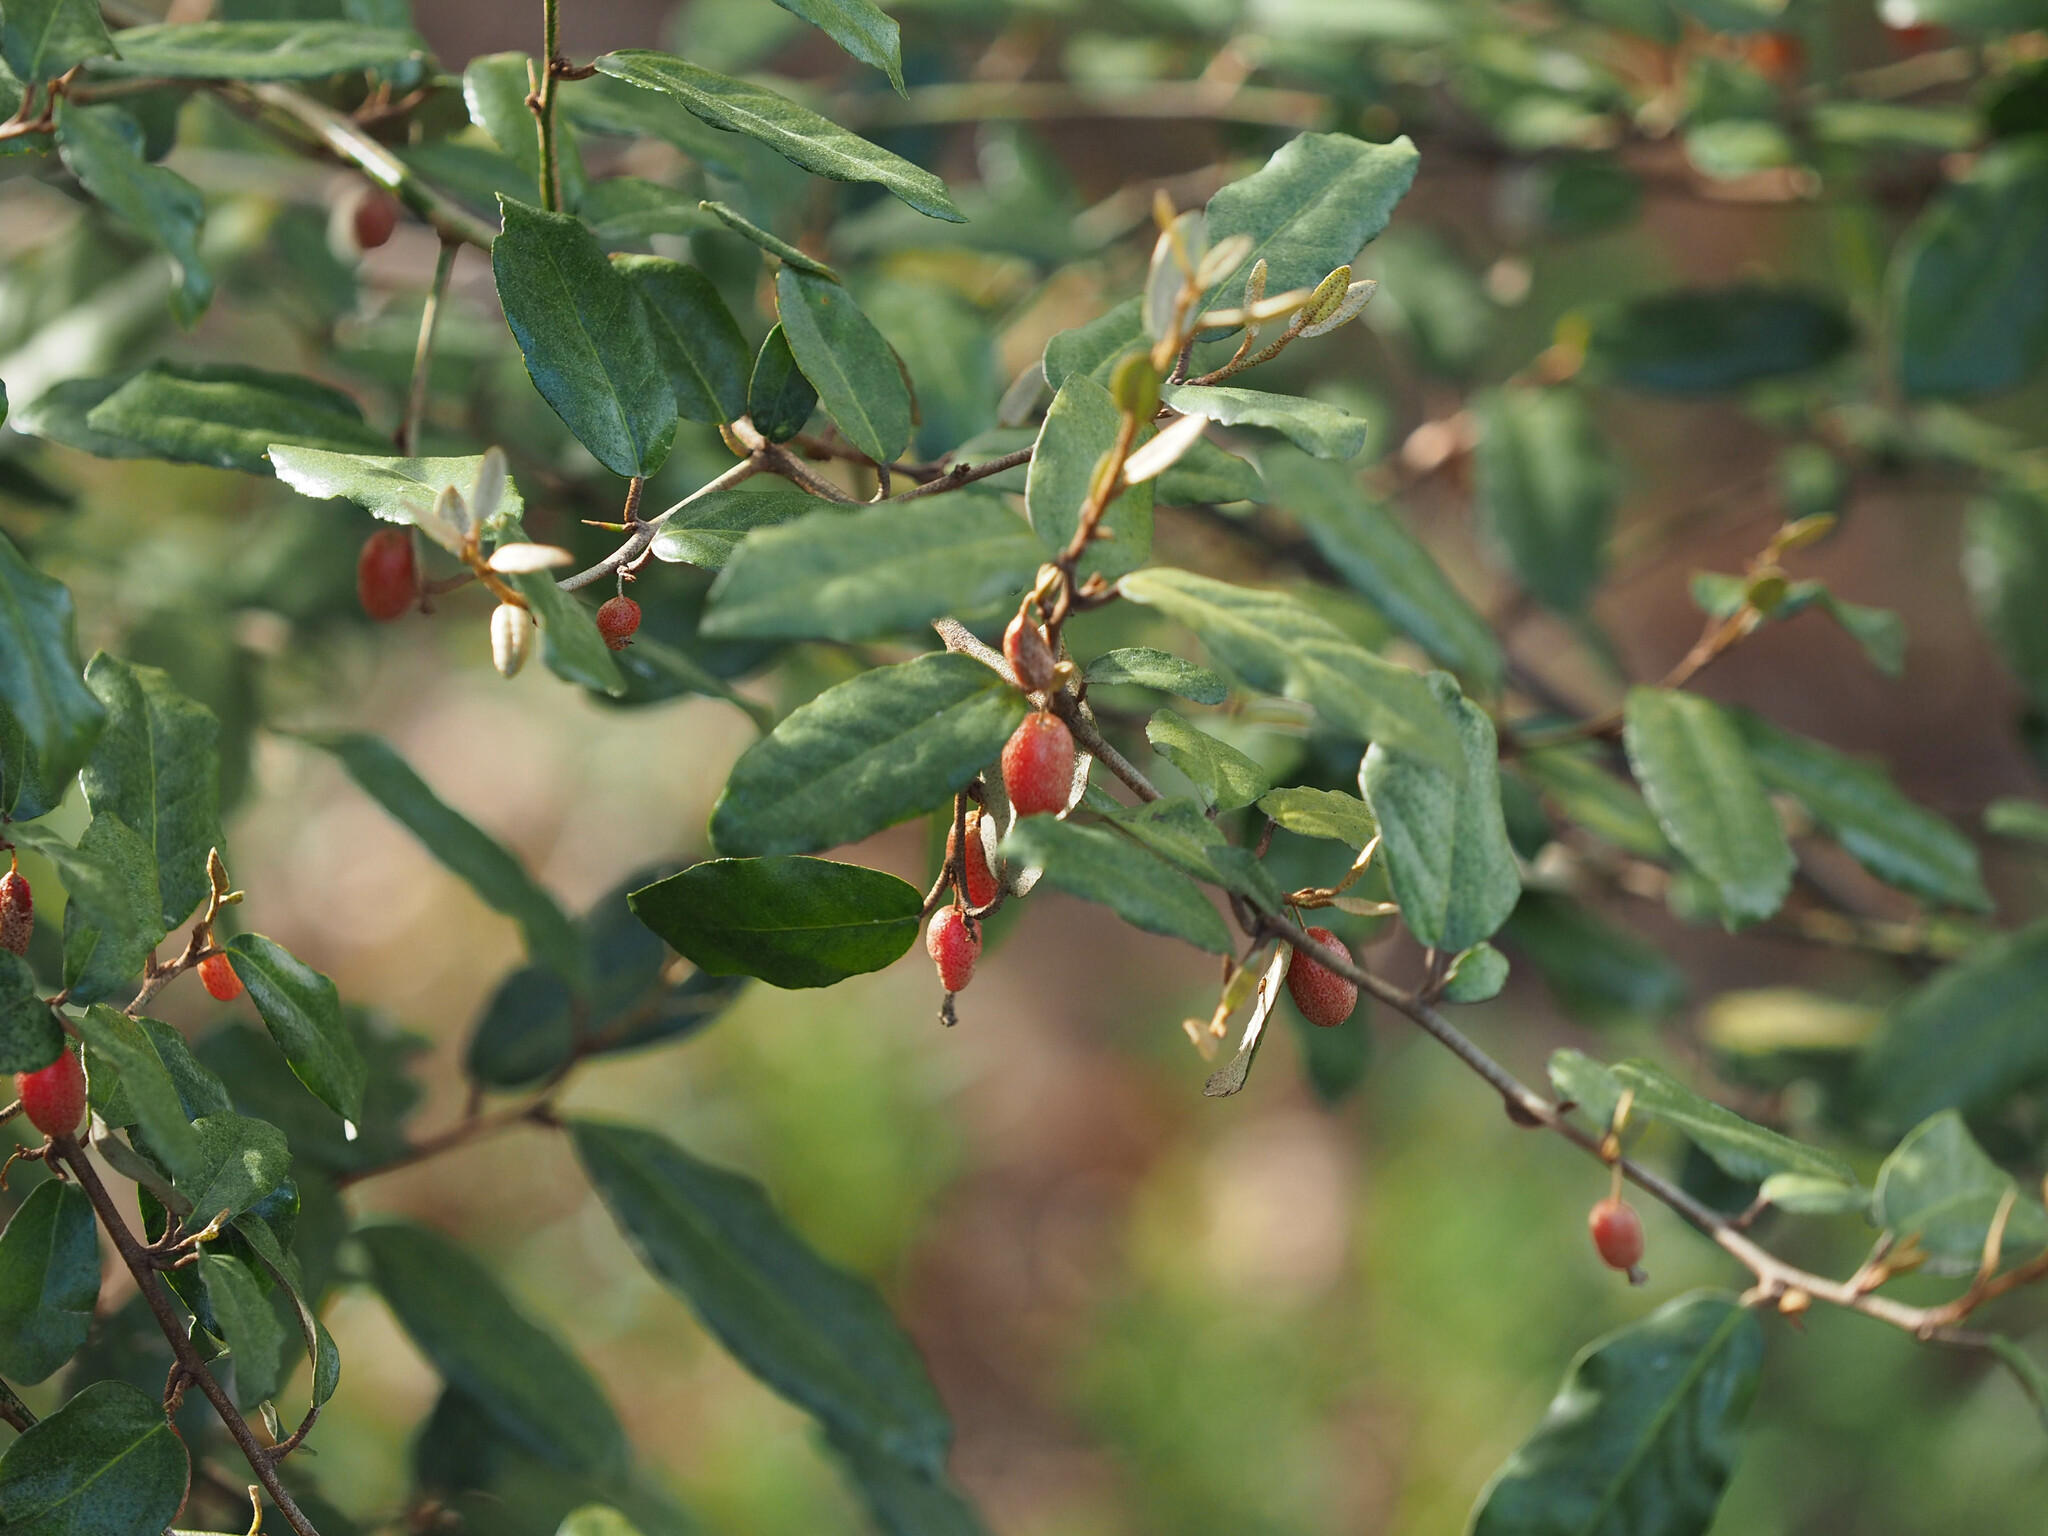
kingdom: Plantae
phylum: Tracheophyta
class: Magnoliopsida
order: Rosales
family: Elaeagnaceae
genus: Elaeagnus
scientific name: Elaeagnus pungens
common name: Spiny oleaster
